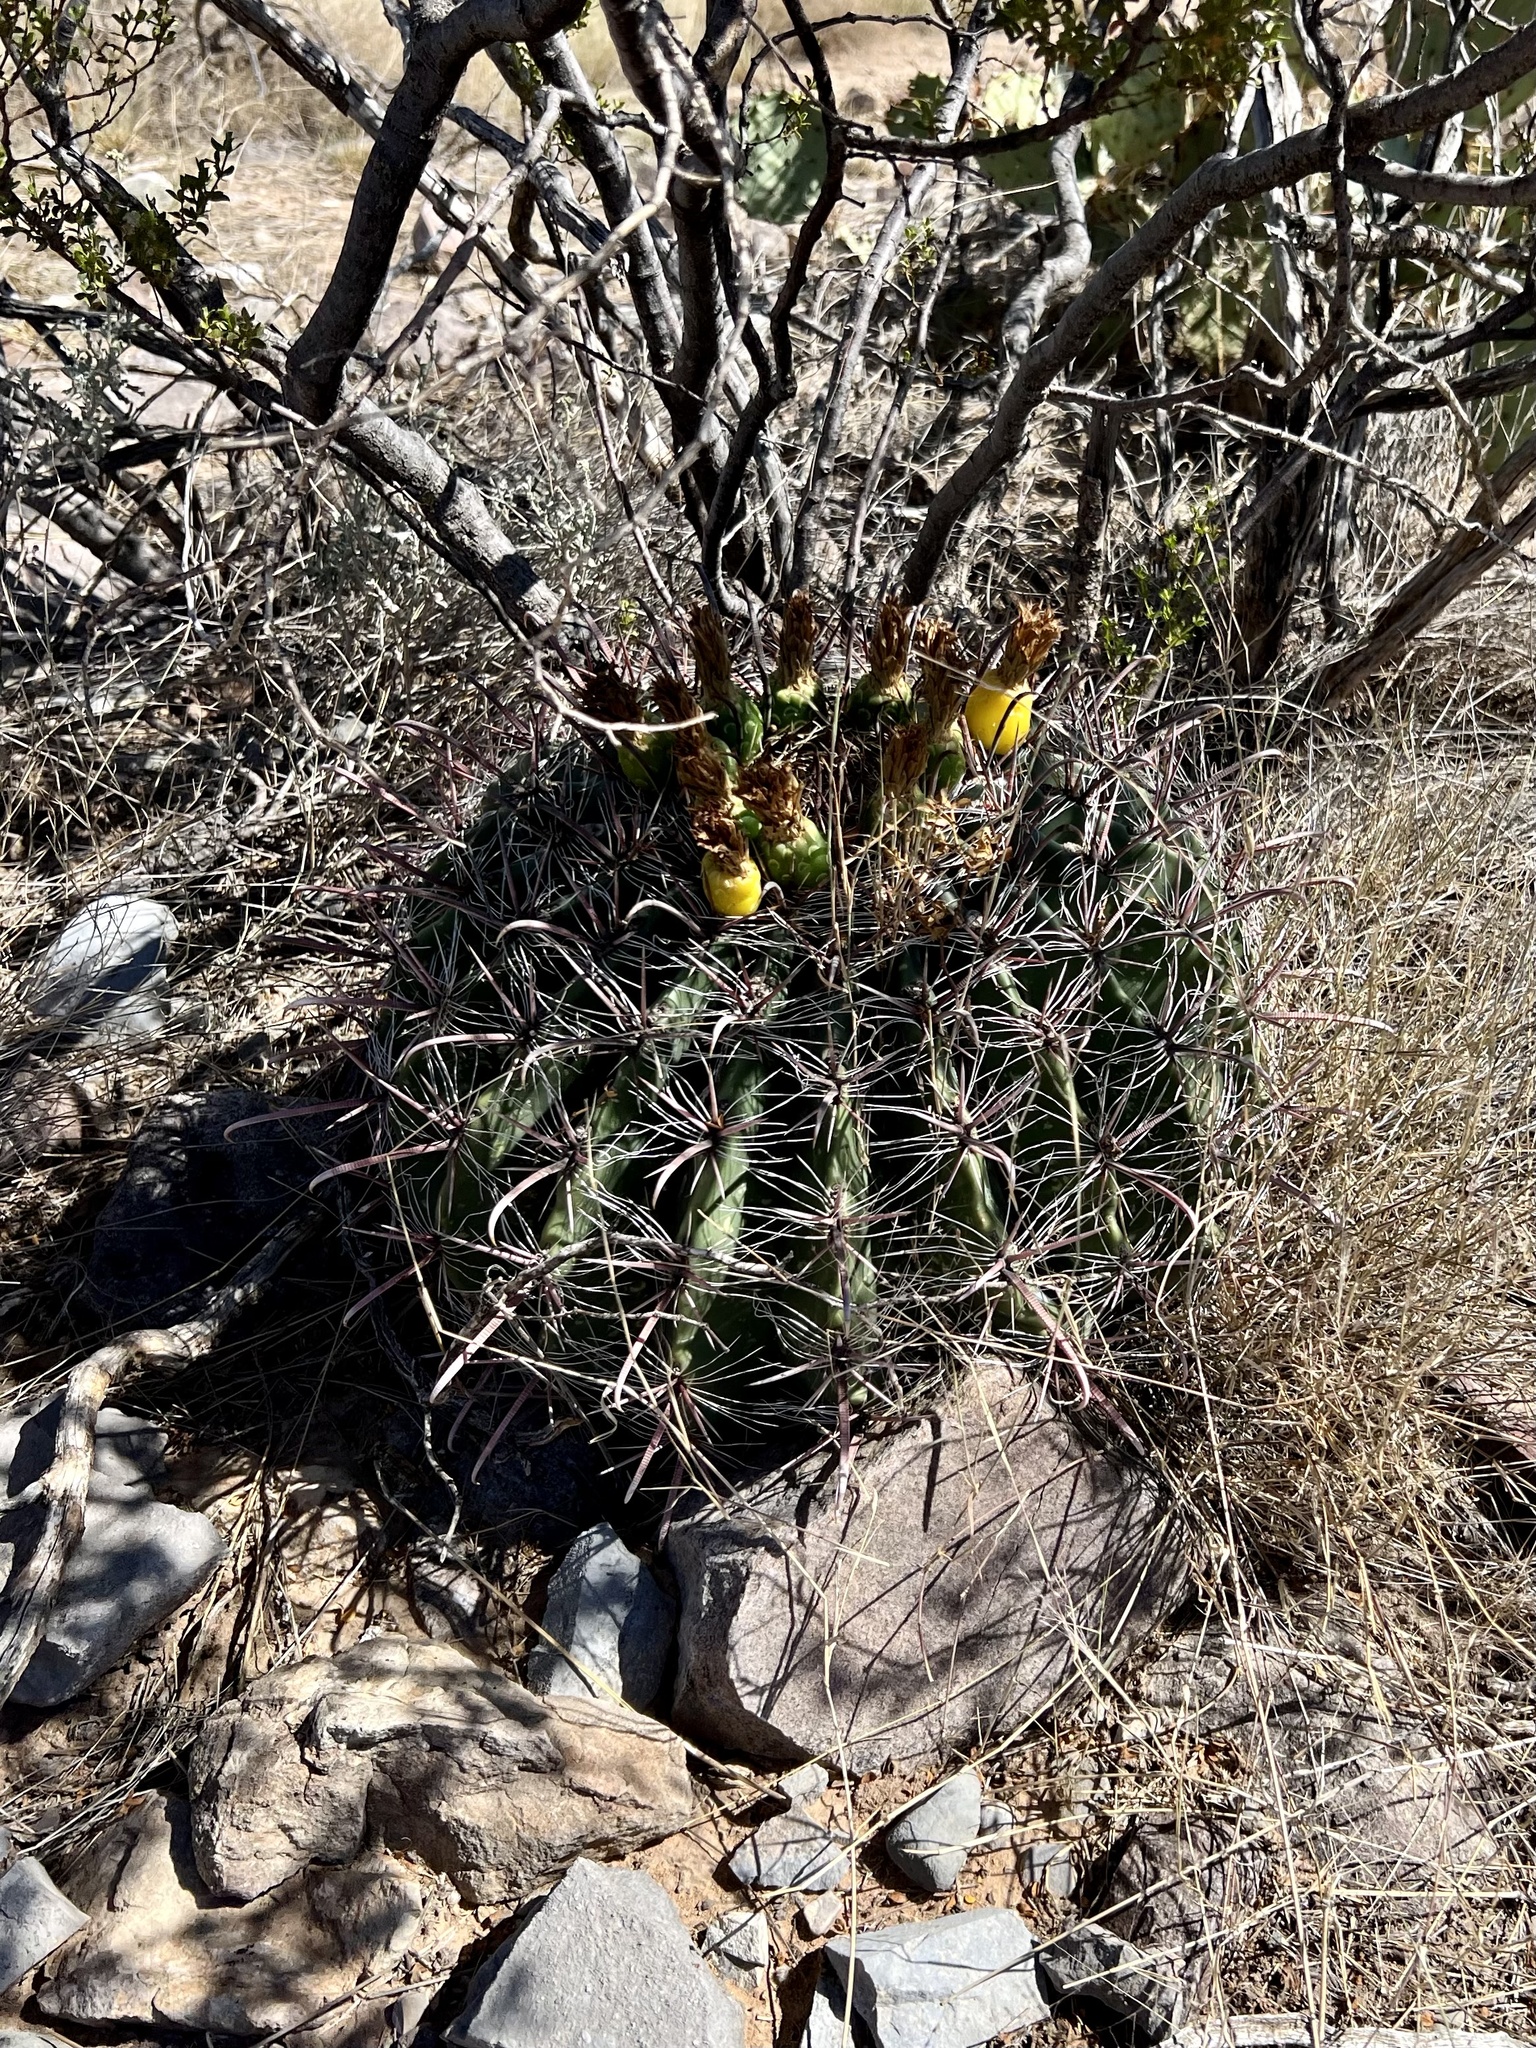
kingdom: Plantae
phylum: Tracheophyta
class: Magnoliopsida
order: Caryophyllales
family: Cactaceae
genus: Ferocactus
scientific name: Ferocactus wislizeni
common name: Candy barrel cactus
